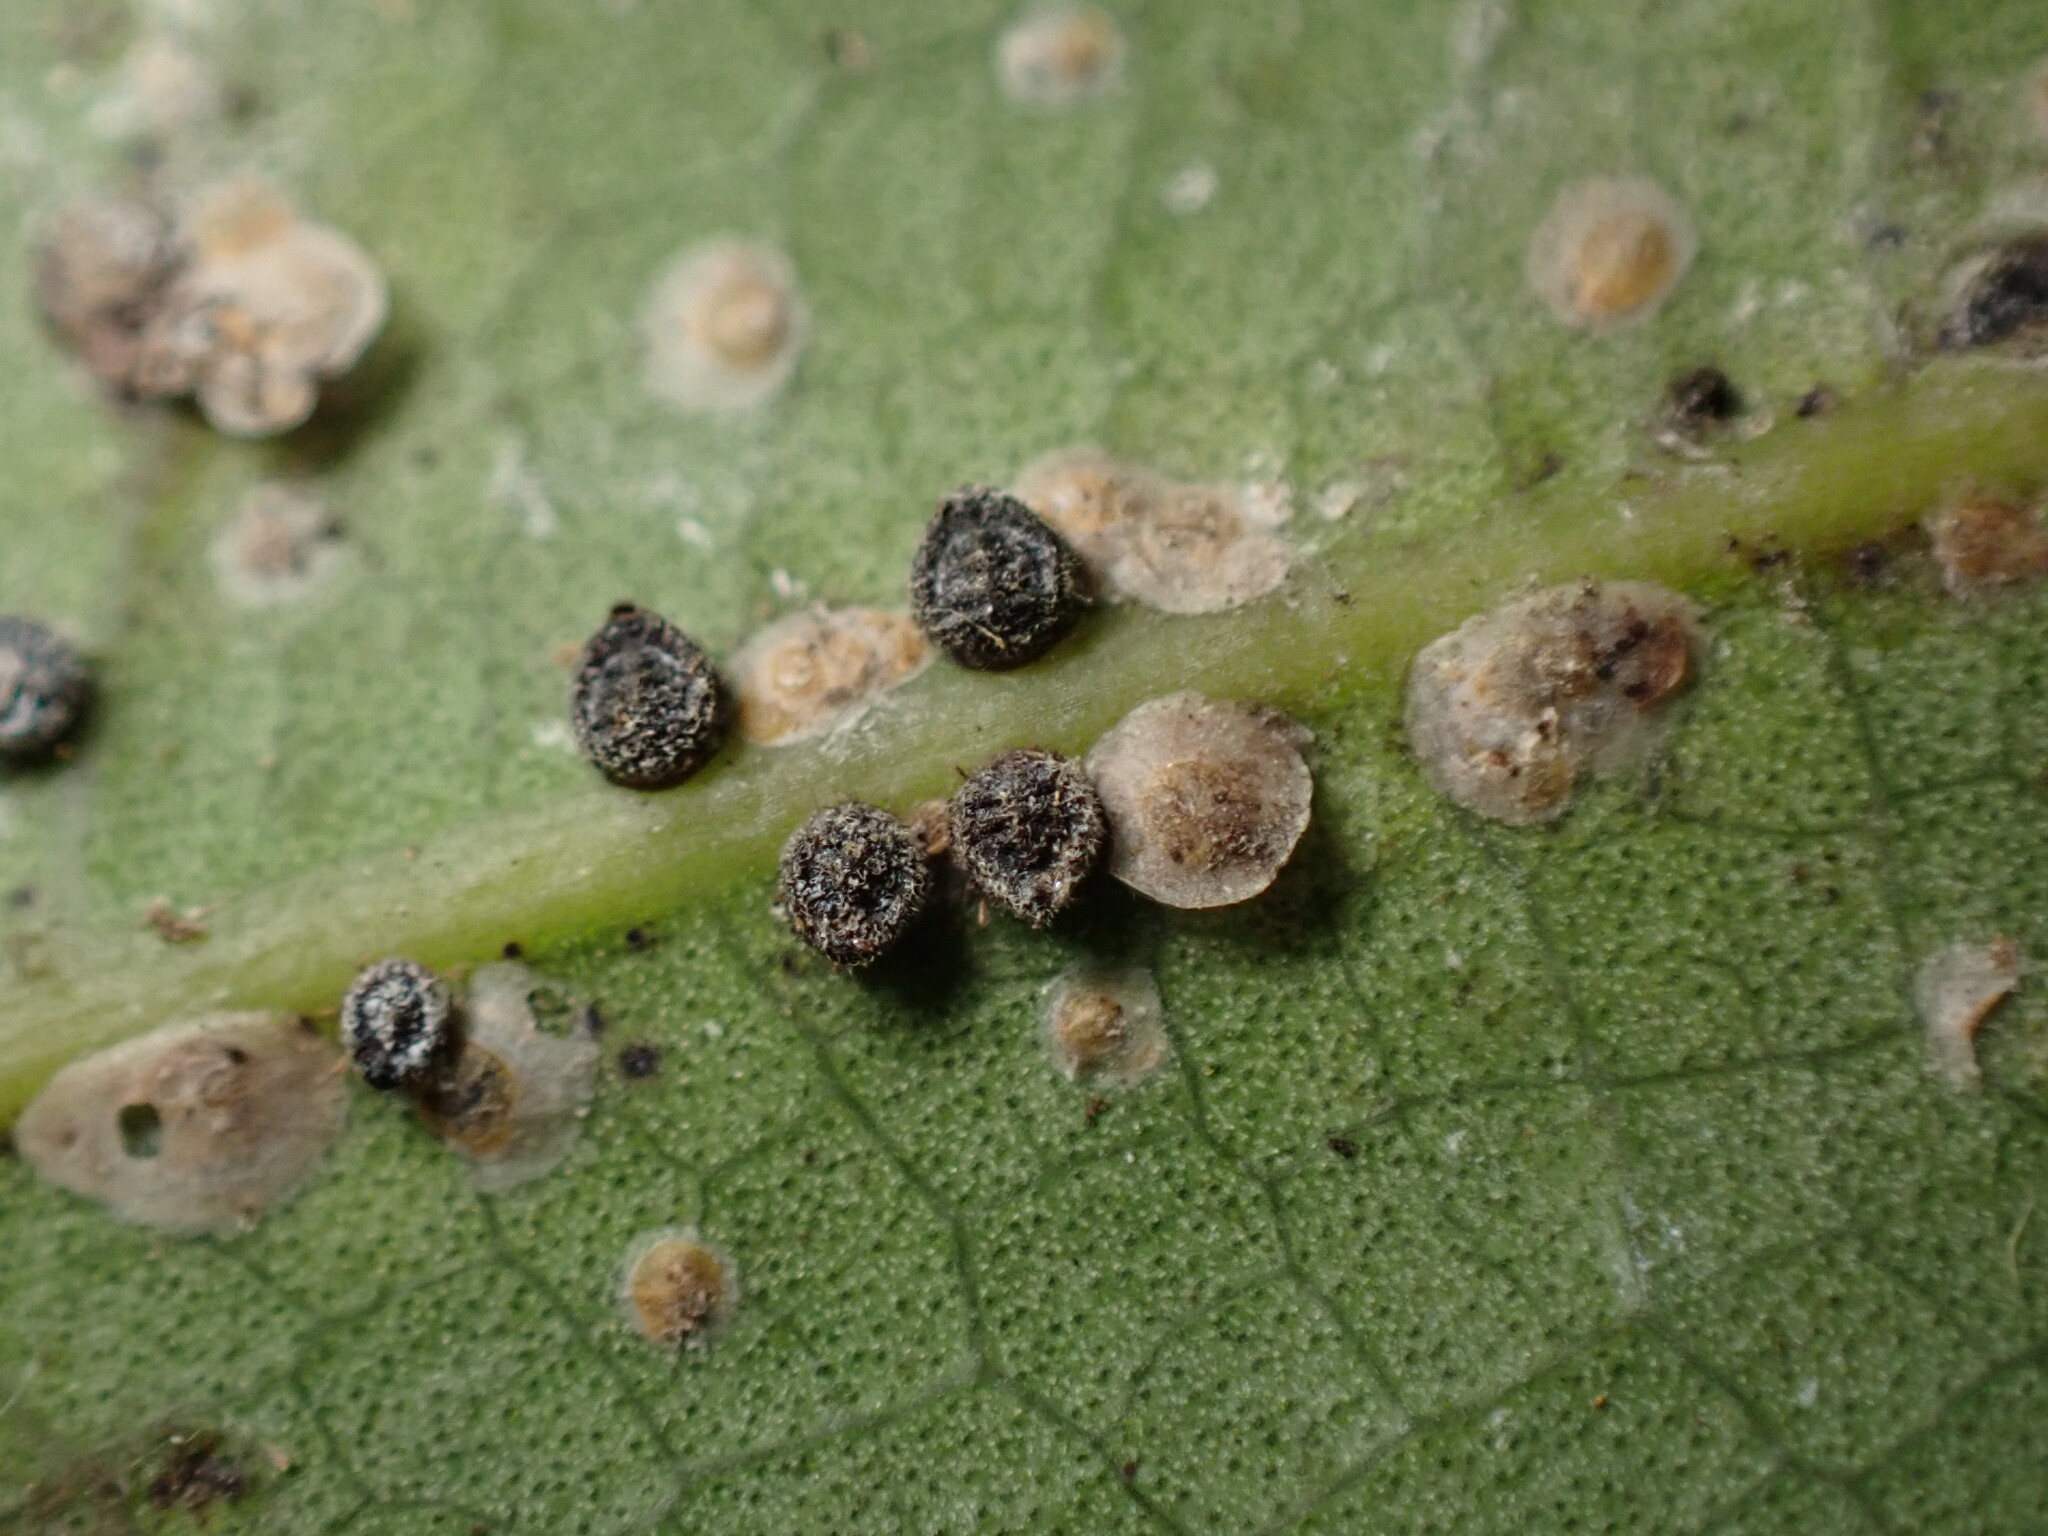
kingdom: Animalia
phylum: Arthropoda
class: Insecta
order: Hemiptera
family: Aphididae
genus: Euthoracaphis
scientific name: Euthoracaphis umbellulariae
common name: Aphid
